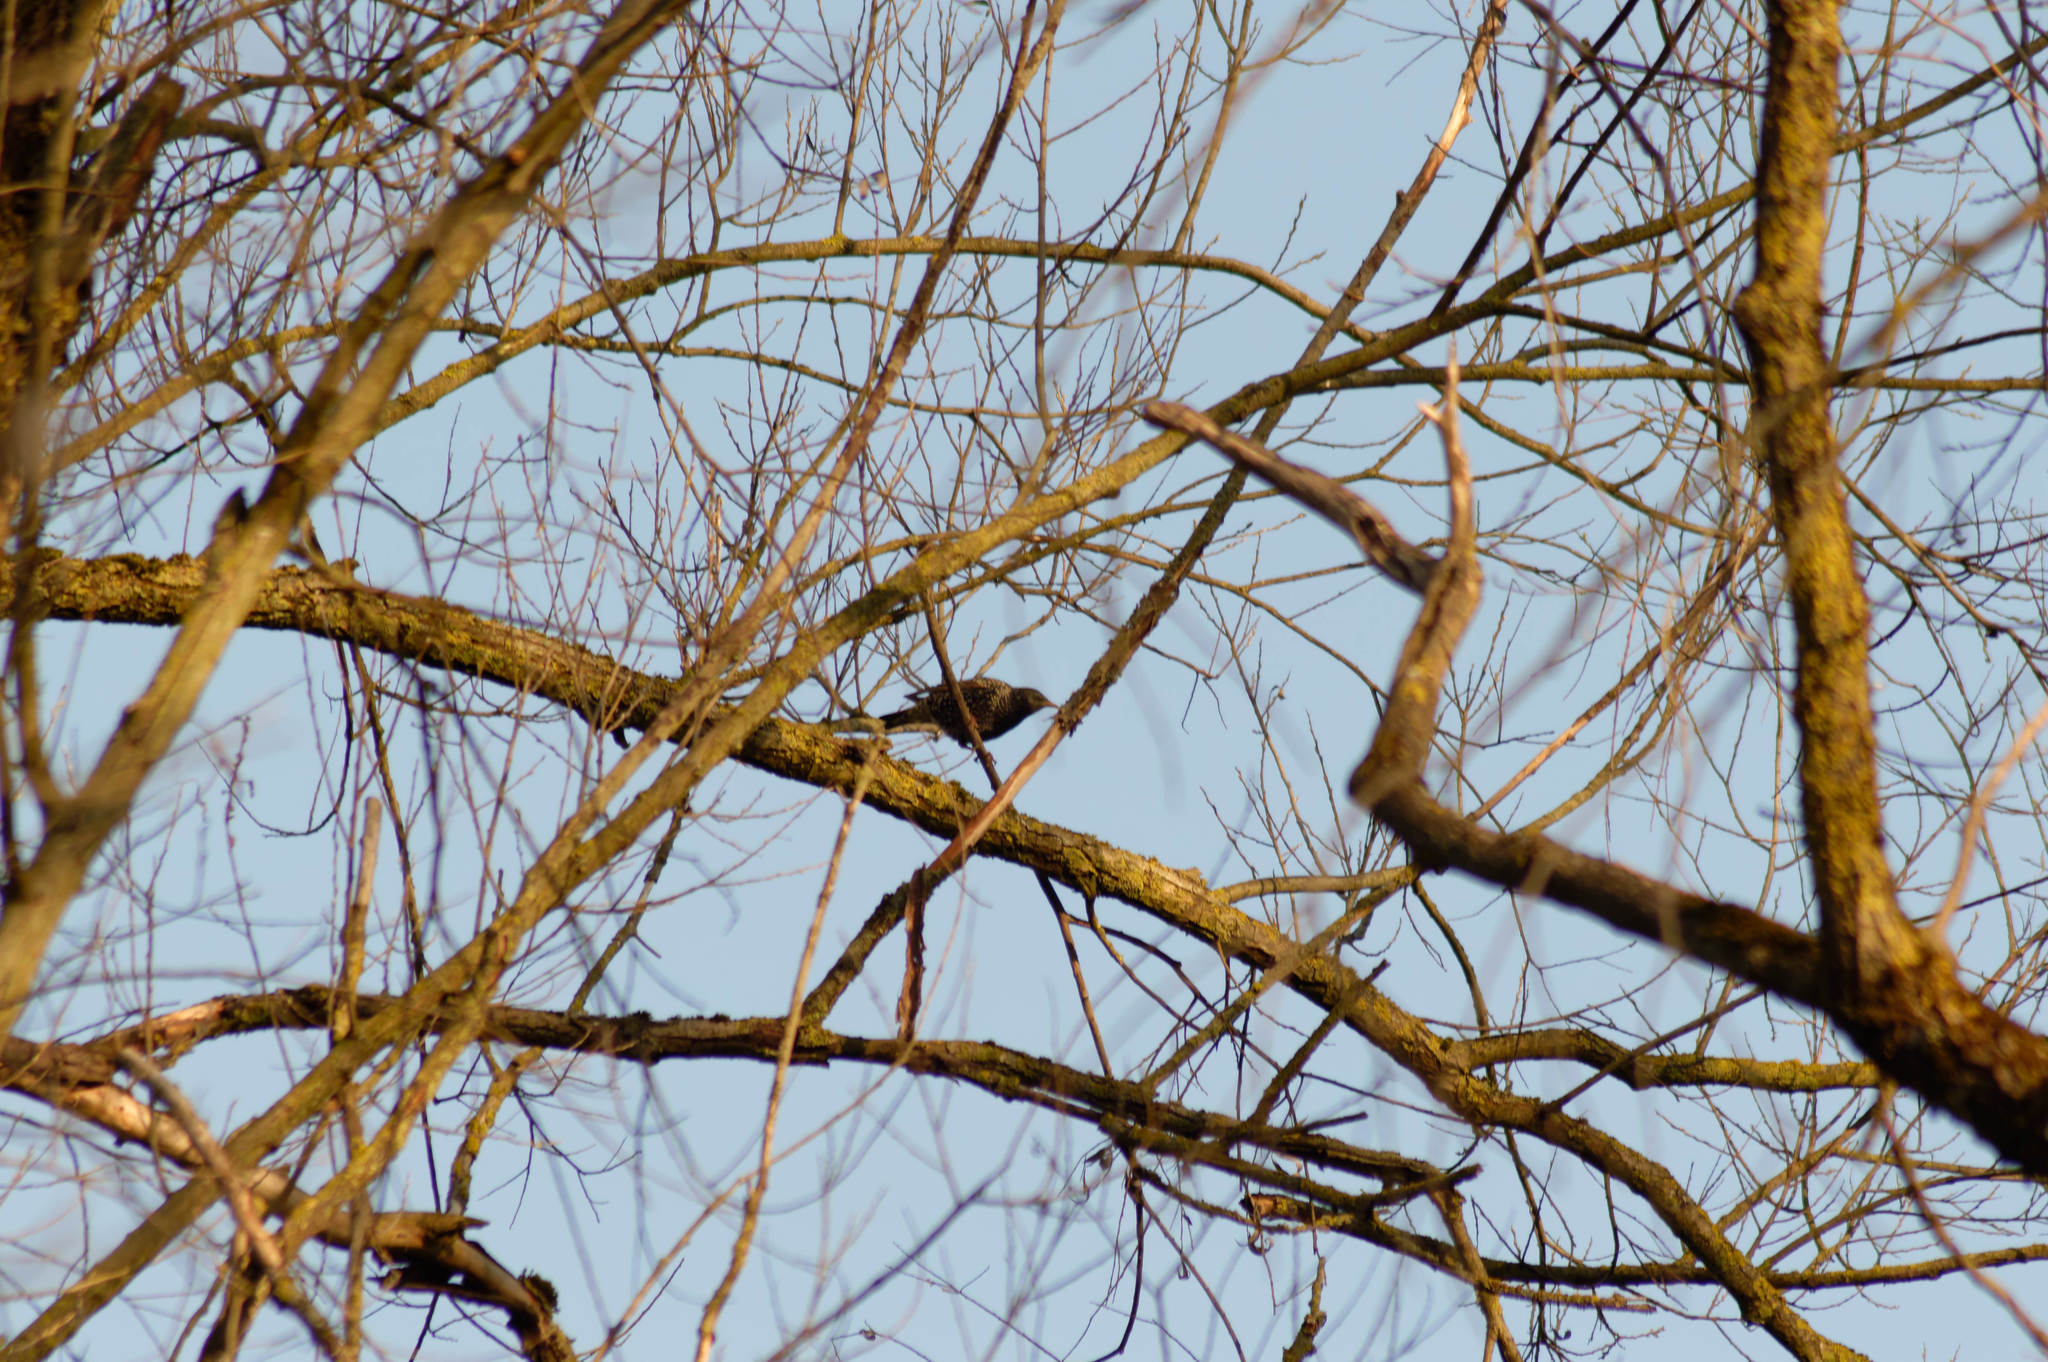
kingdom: Animalia
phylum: Chordata
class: Aves
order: Passeriformes
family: Sturnidae
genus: Sturnus
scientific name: Sturnus vulgaris
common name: Common starling
